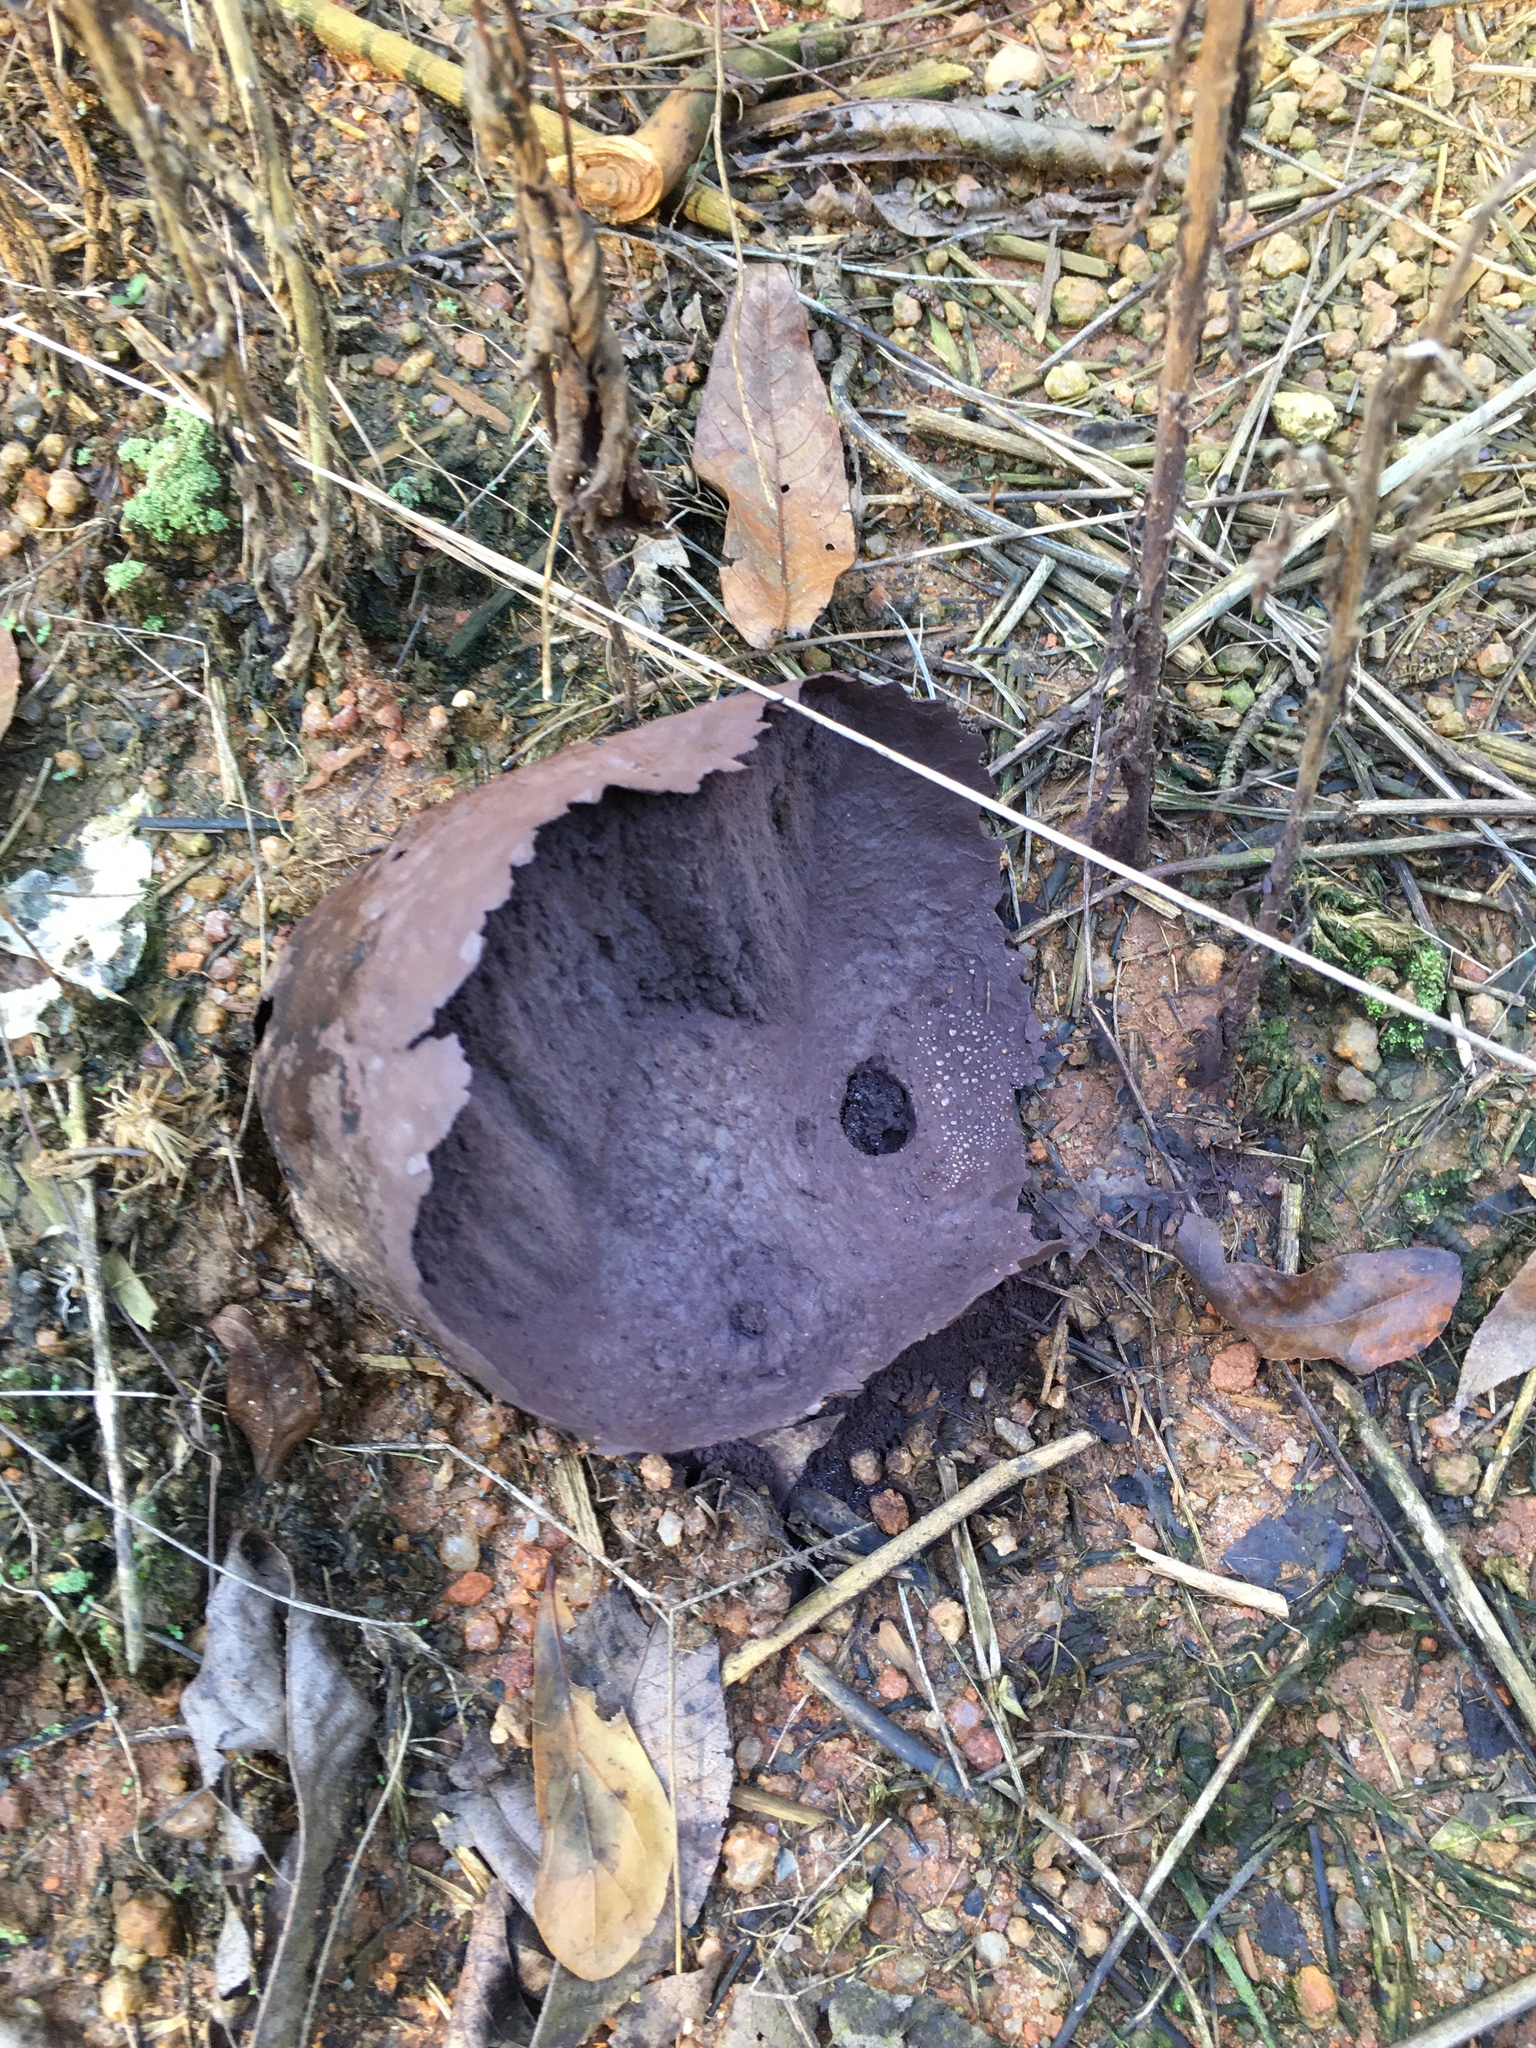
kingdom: Fungi
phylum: Basidiomycota
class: Agaricomycetes
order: Agaricales
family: Lycoperdaceae
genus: Calvatia
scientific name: Calvatia cyathiformis
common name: Purple-spored puffball
